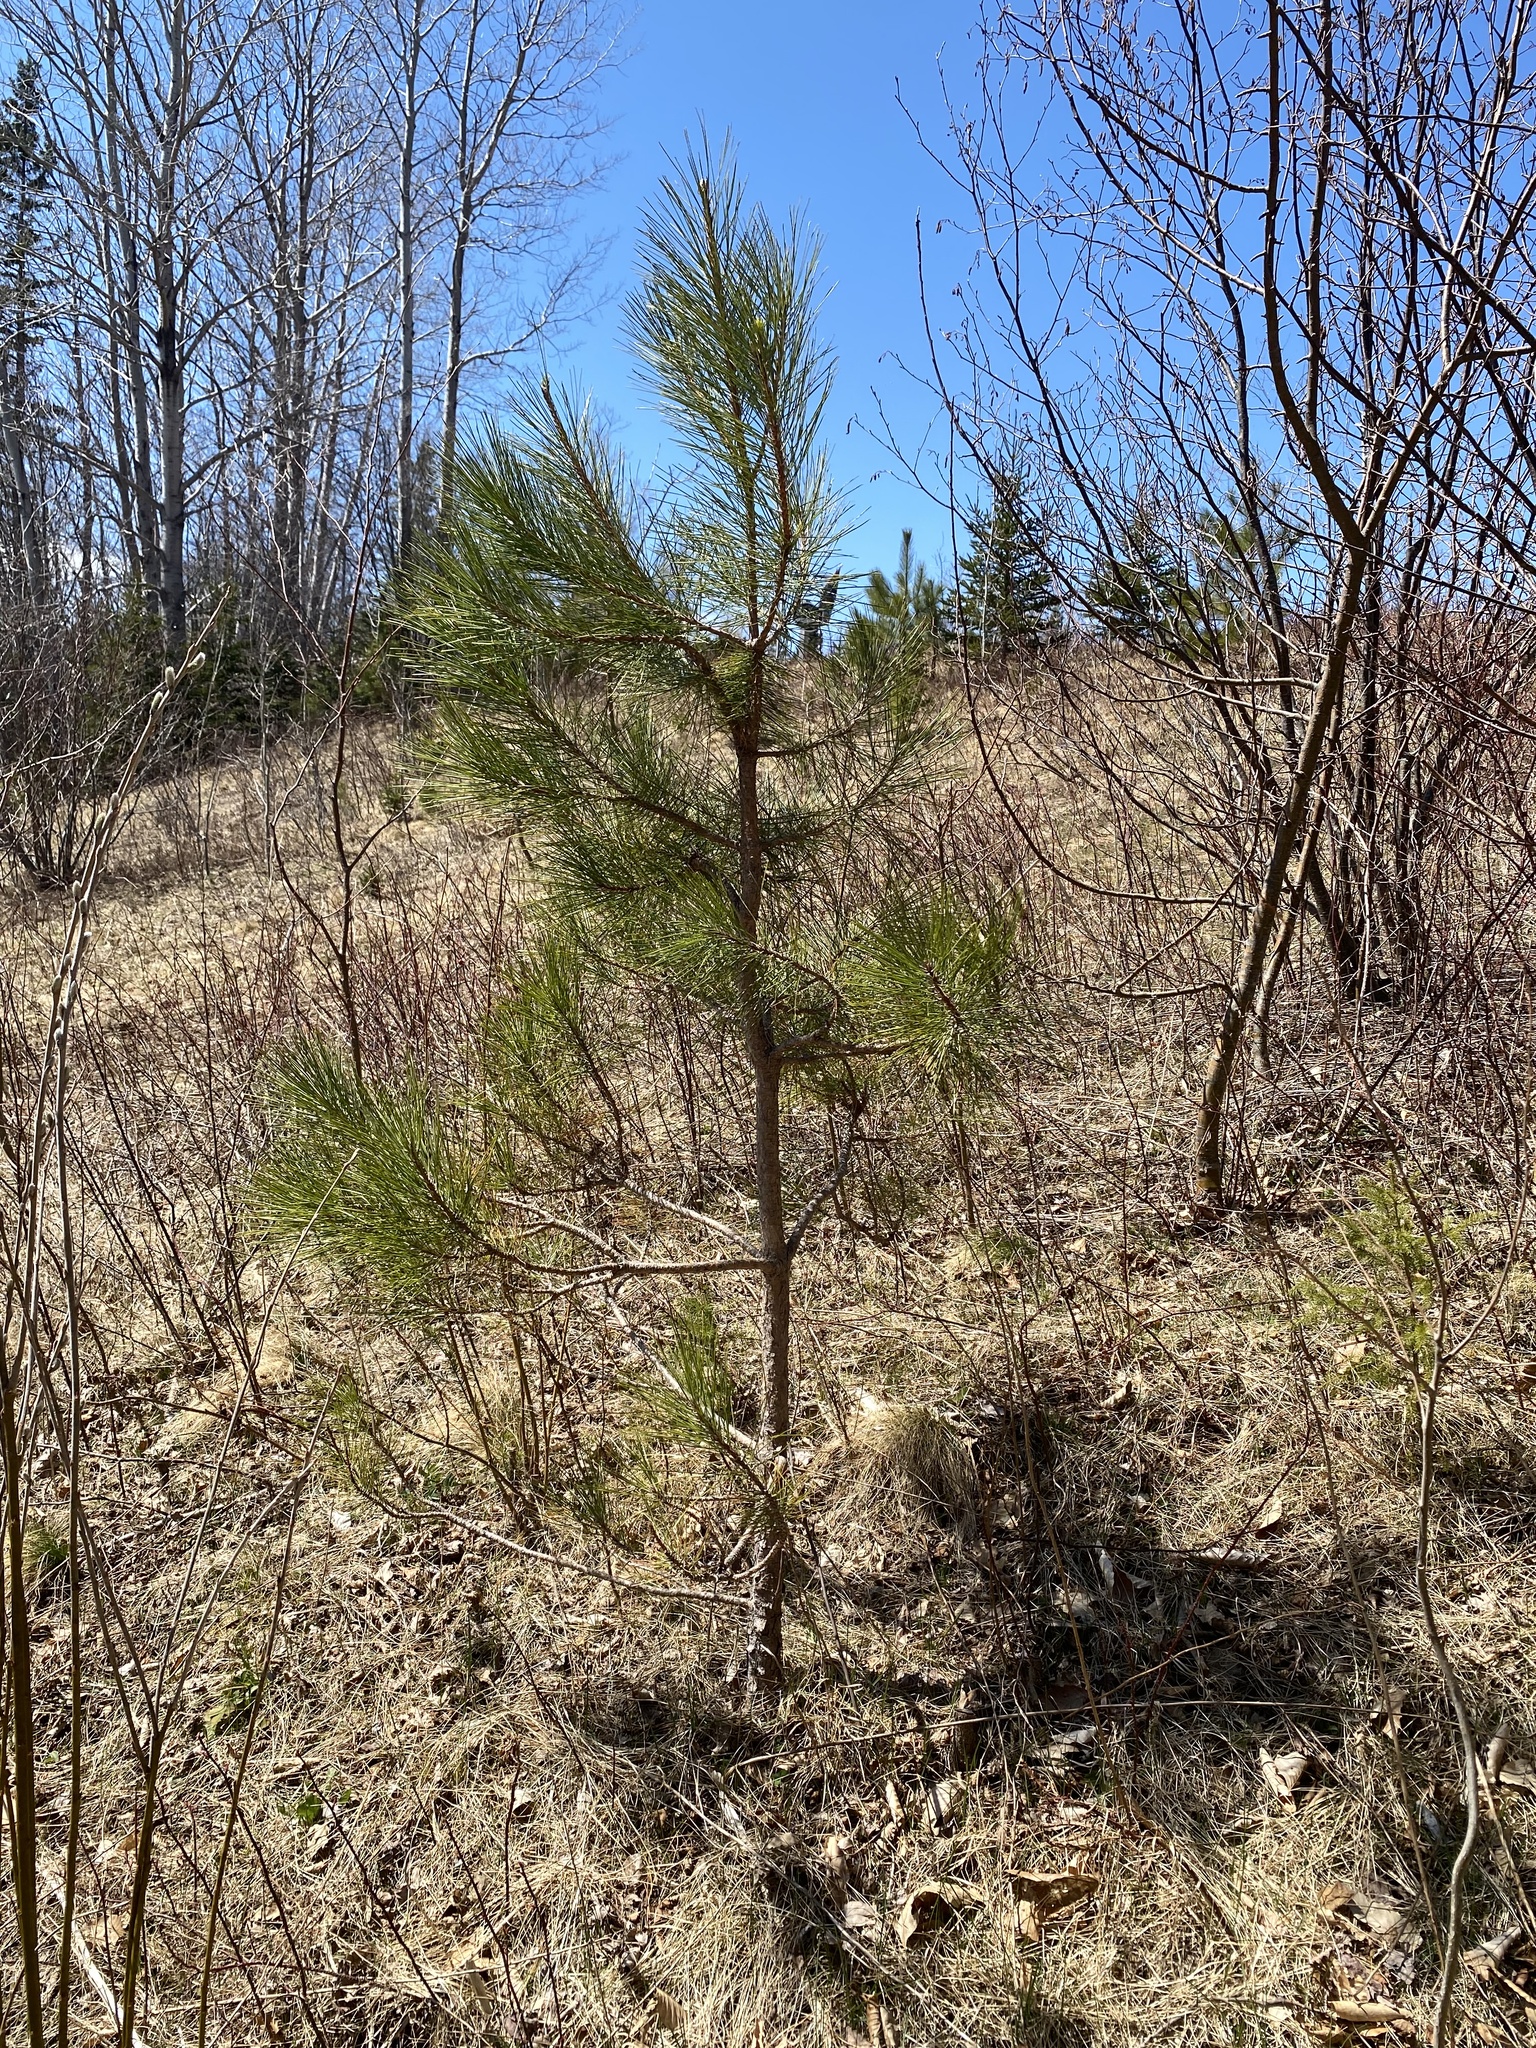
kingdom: Plantae
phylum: Tracheophyta
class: Pinopsida
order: Pinales
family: Pinaceae
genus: Pinus
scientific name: Pinus resinosa
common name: Norway pine
